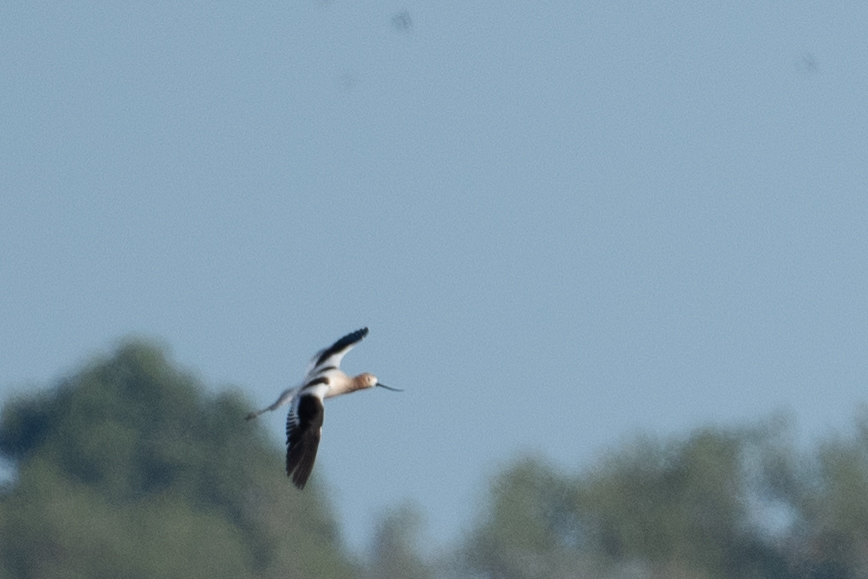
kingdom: Animalia
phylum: Chordata
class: Aves
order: Charadriiformes
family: Recurvirostridae
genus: Recurvirostra
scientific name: Recurvirostra americana
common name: American avocet
